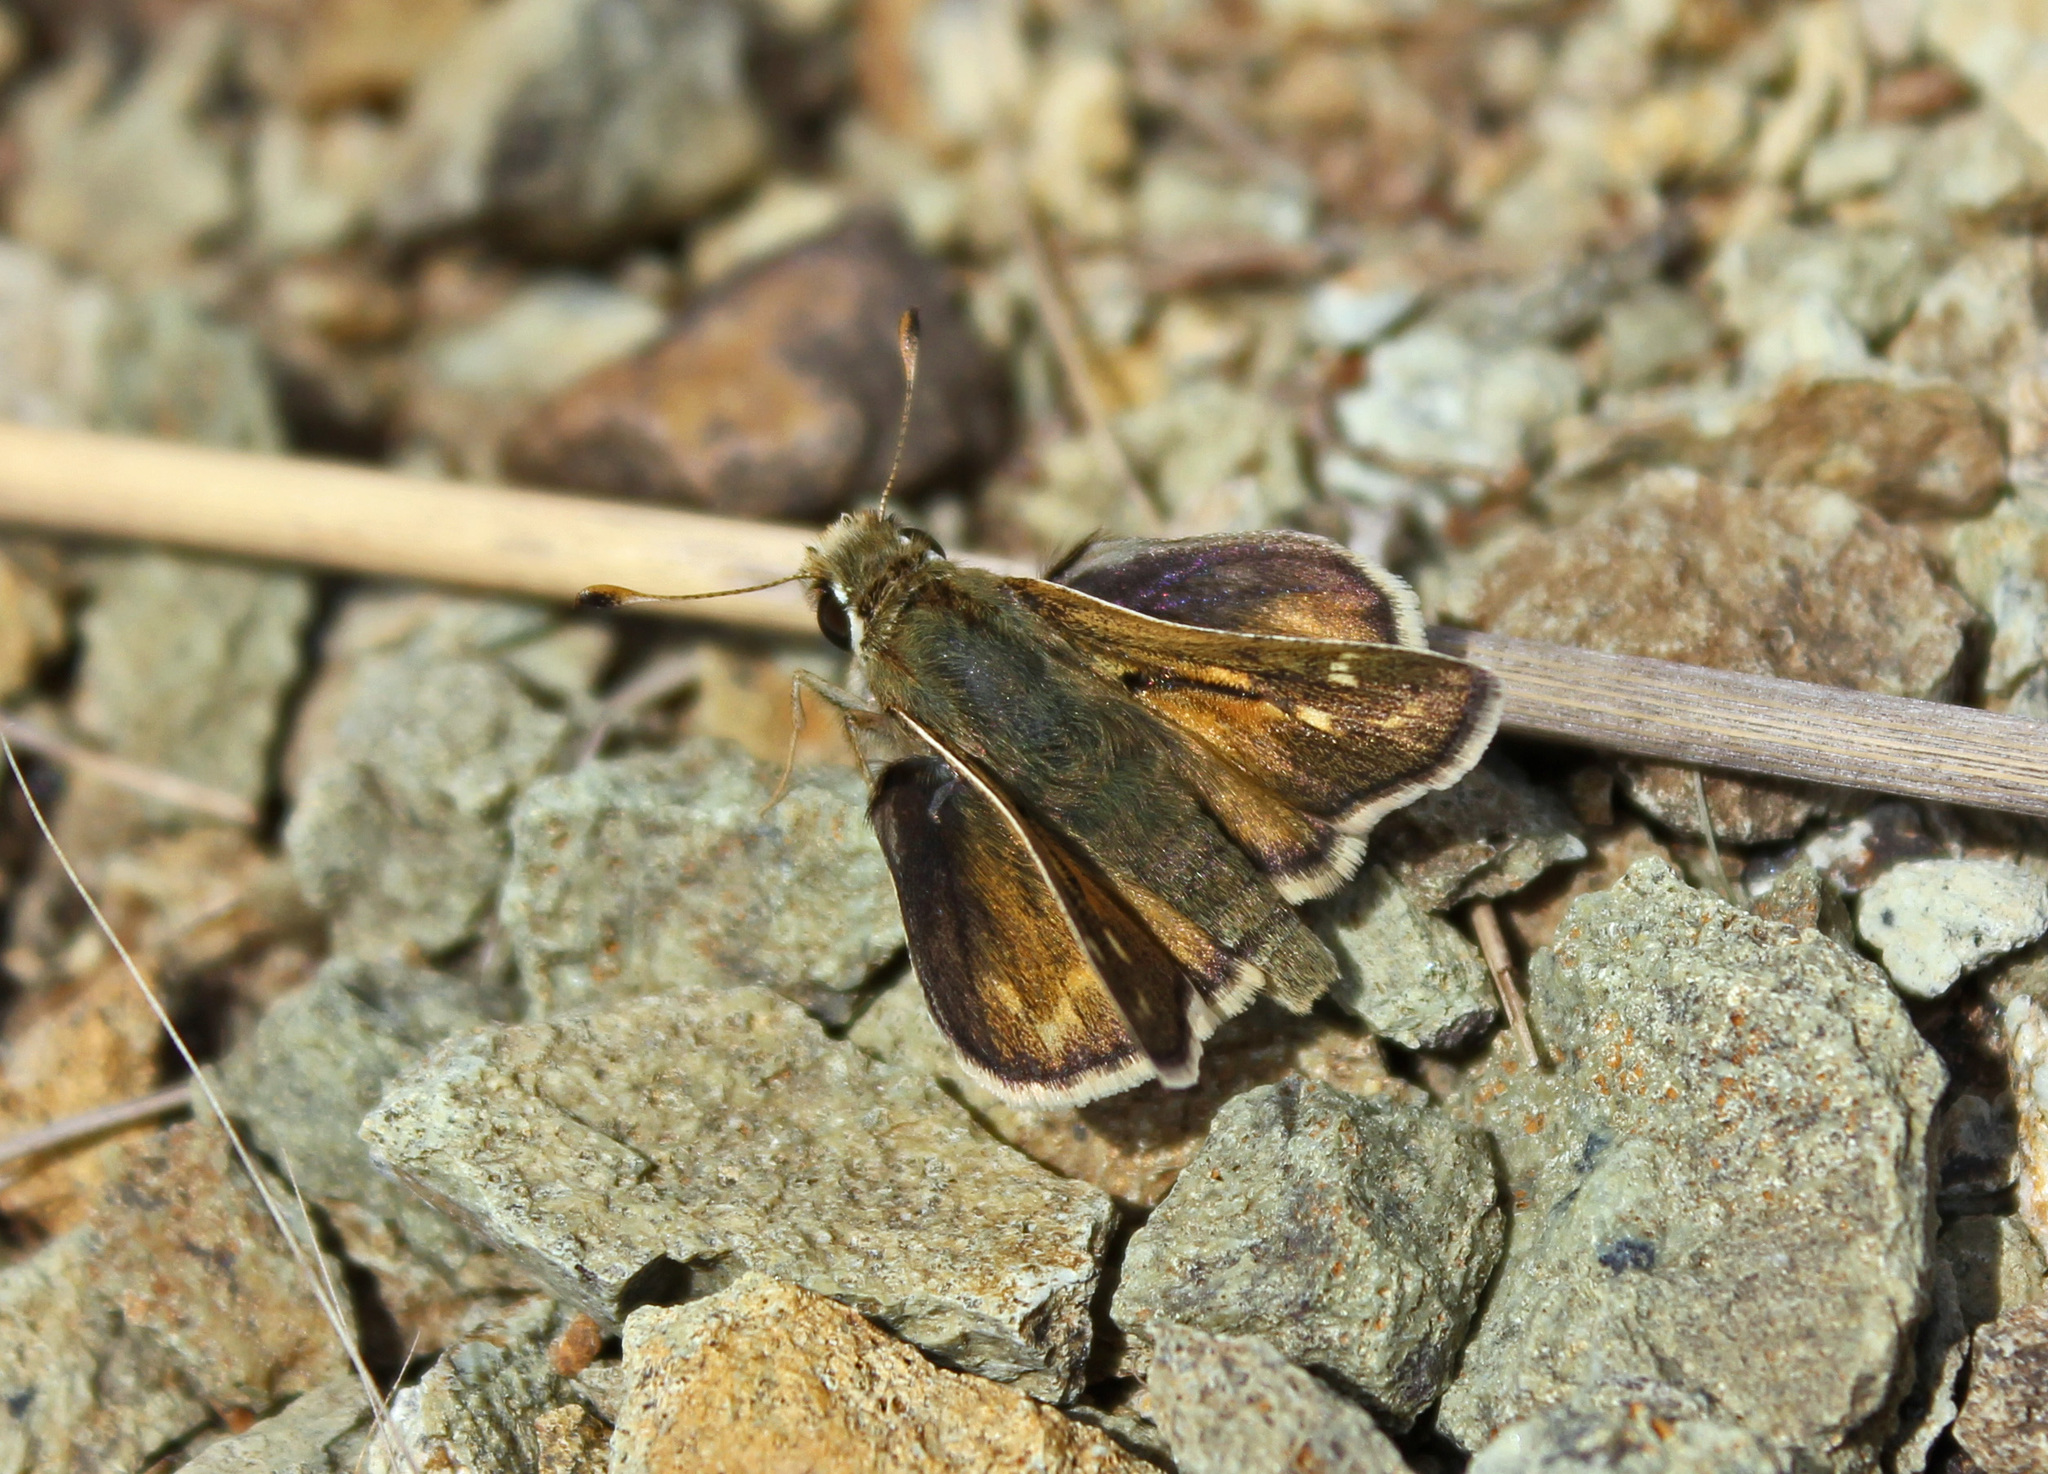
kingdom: Animalia
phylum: Arthropoda
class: Insecta
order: Lepidoptera
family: Hesperiidae
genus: Hesperia
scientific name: Hesperia metea
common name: Cobweb skipper
